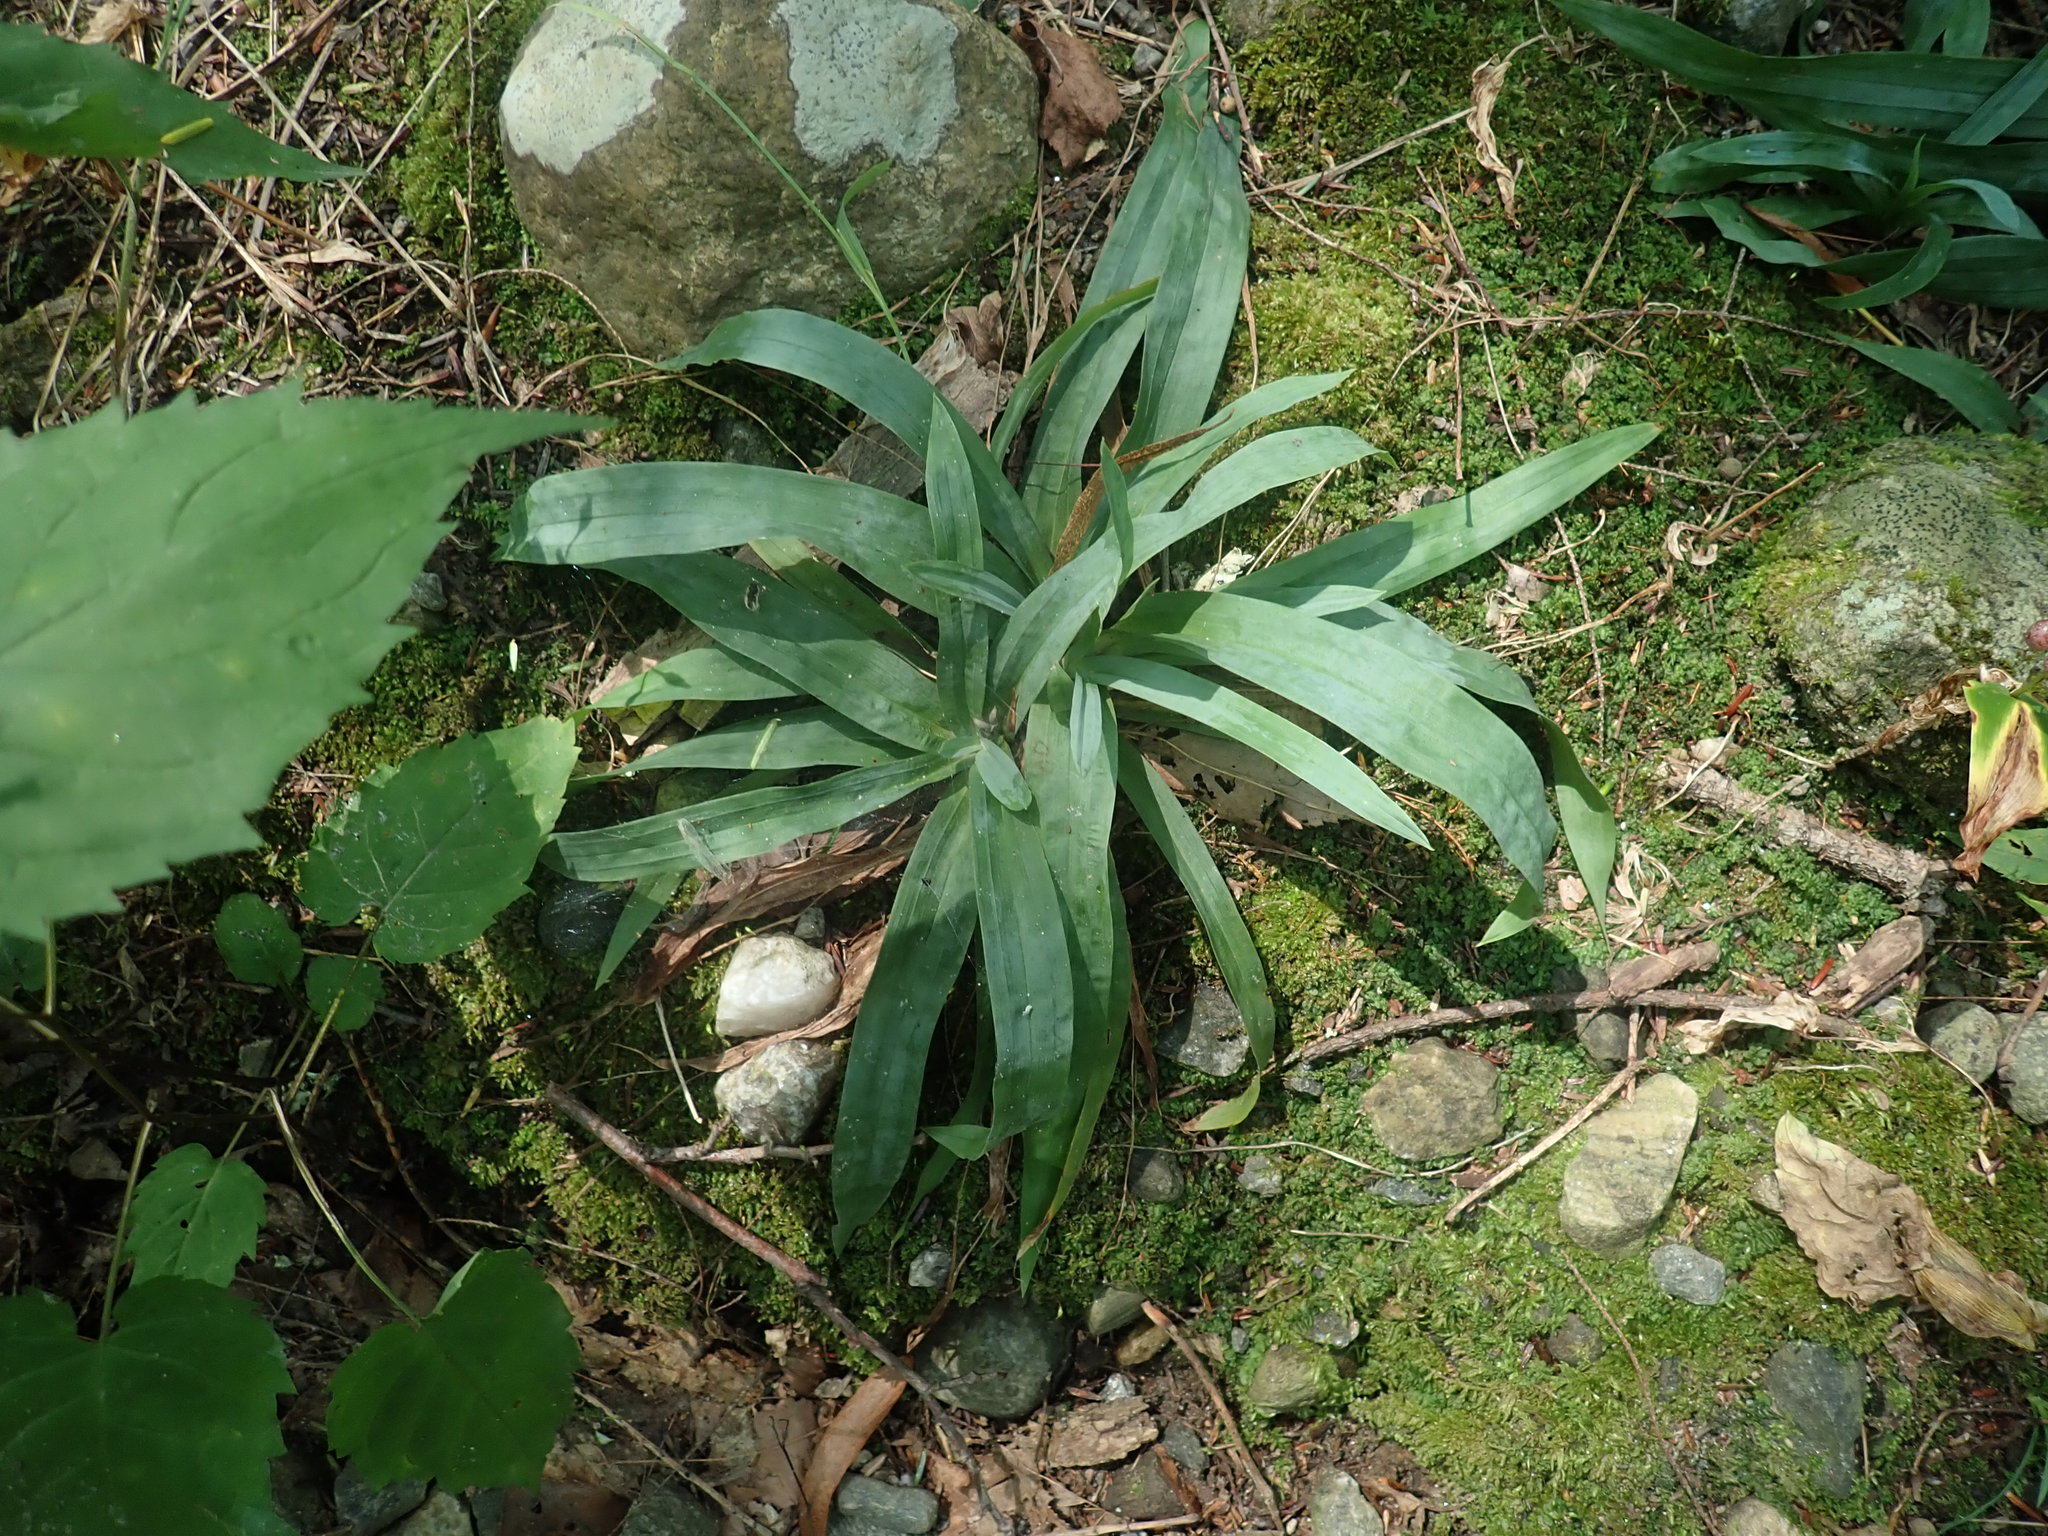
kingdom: Plantae
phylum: Tracheophyta
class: Liliopsida
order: Poales
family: Cyperaceae
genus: Carex
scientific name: Carex platyphylla
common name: Broad-leaved sedge
